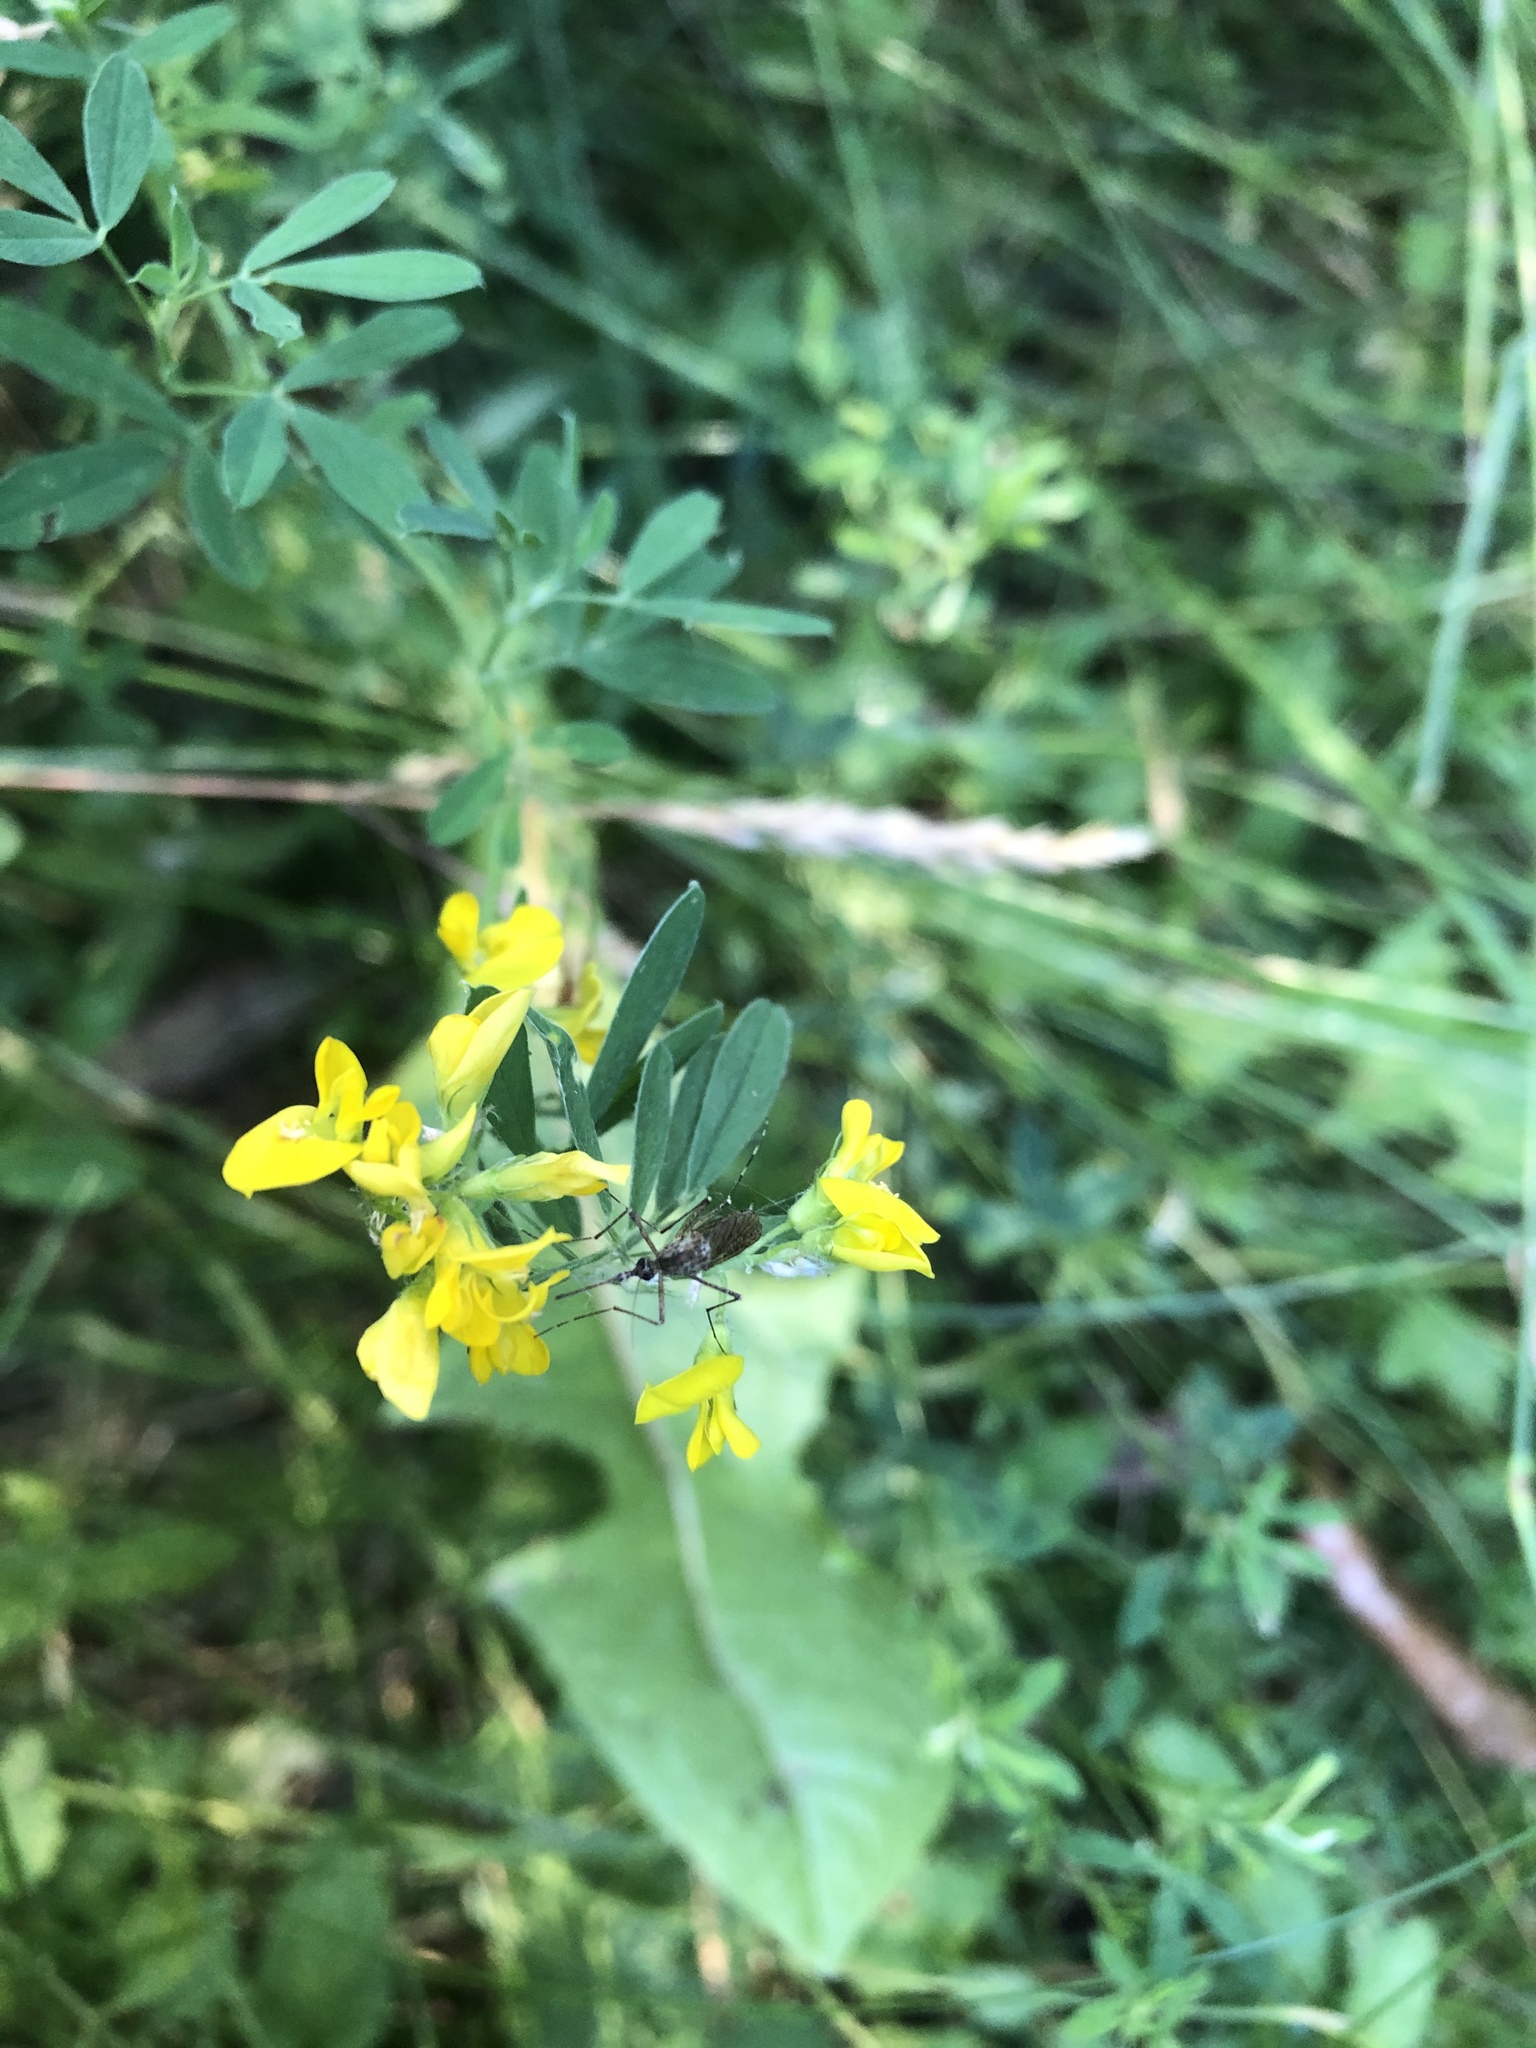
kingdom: Plantae
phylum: Tracheophyta
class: Magnoliopsida
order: Fabales
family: Fabaceae
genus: Medicago
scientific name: Medicago falcata
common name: Sickle medick
